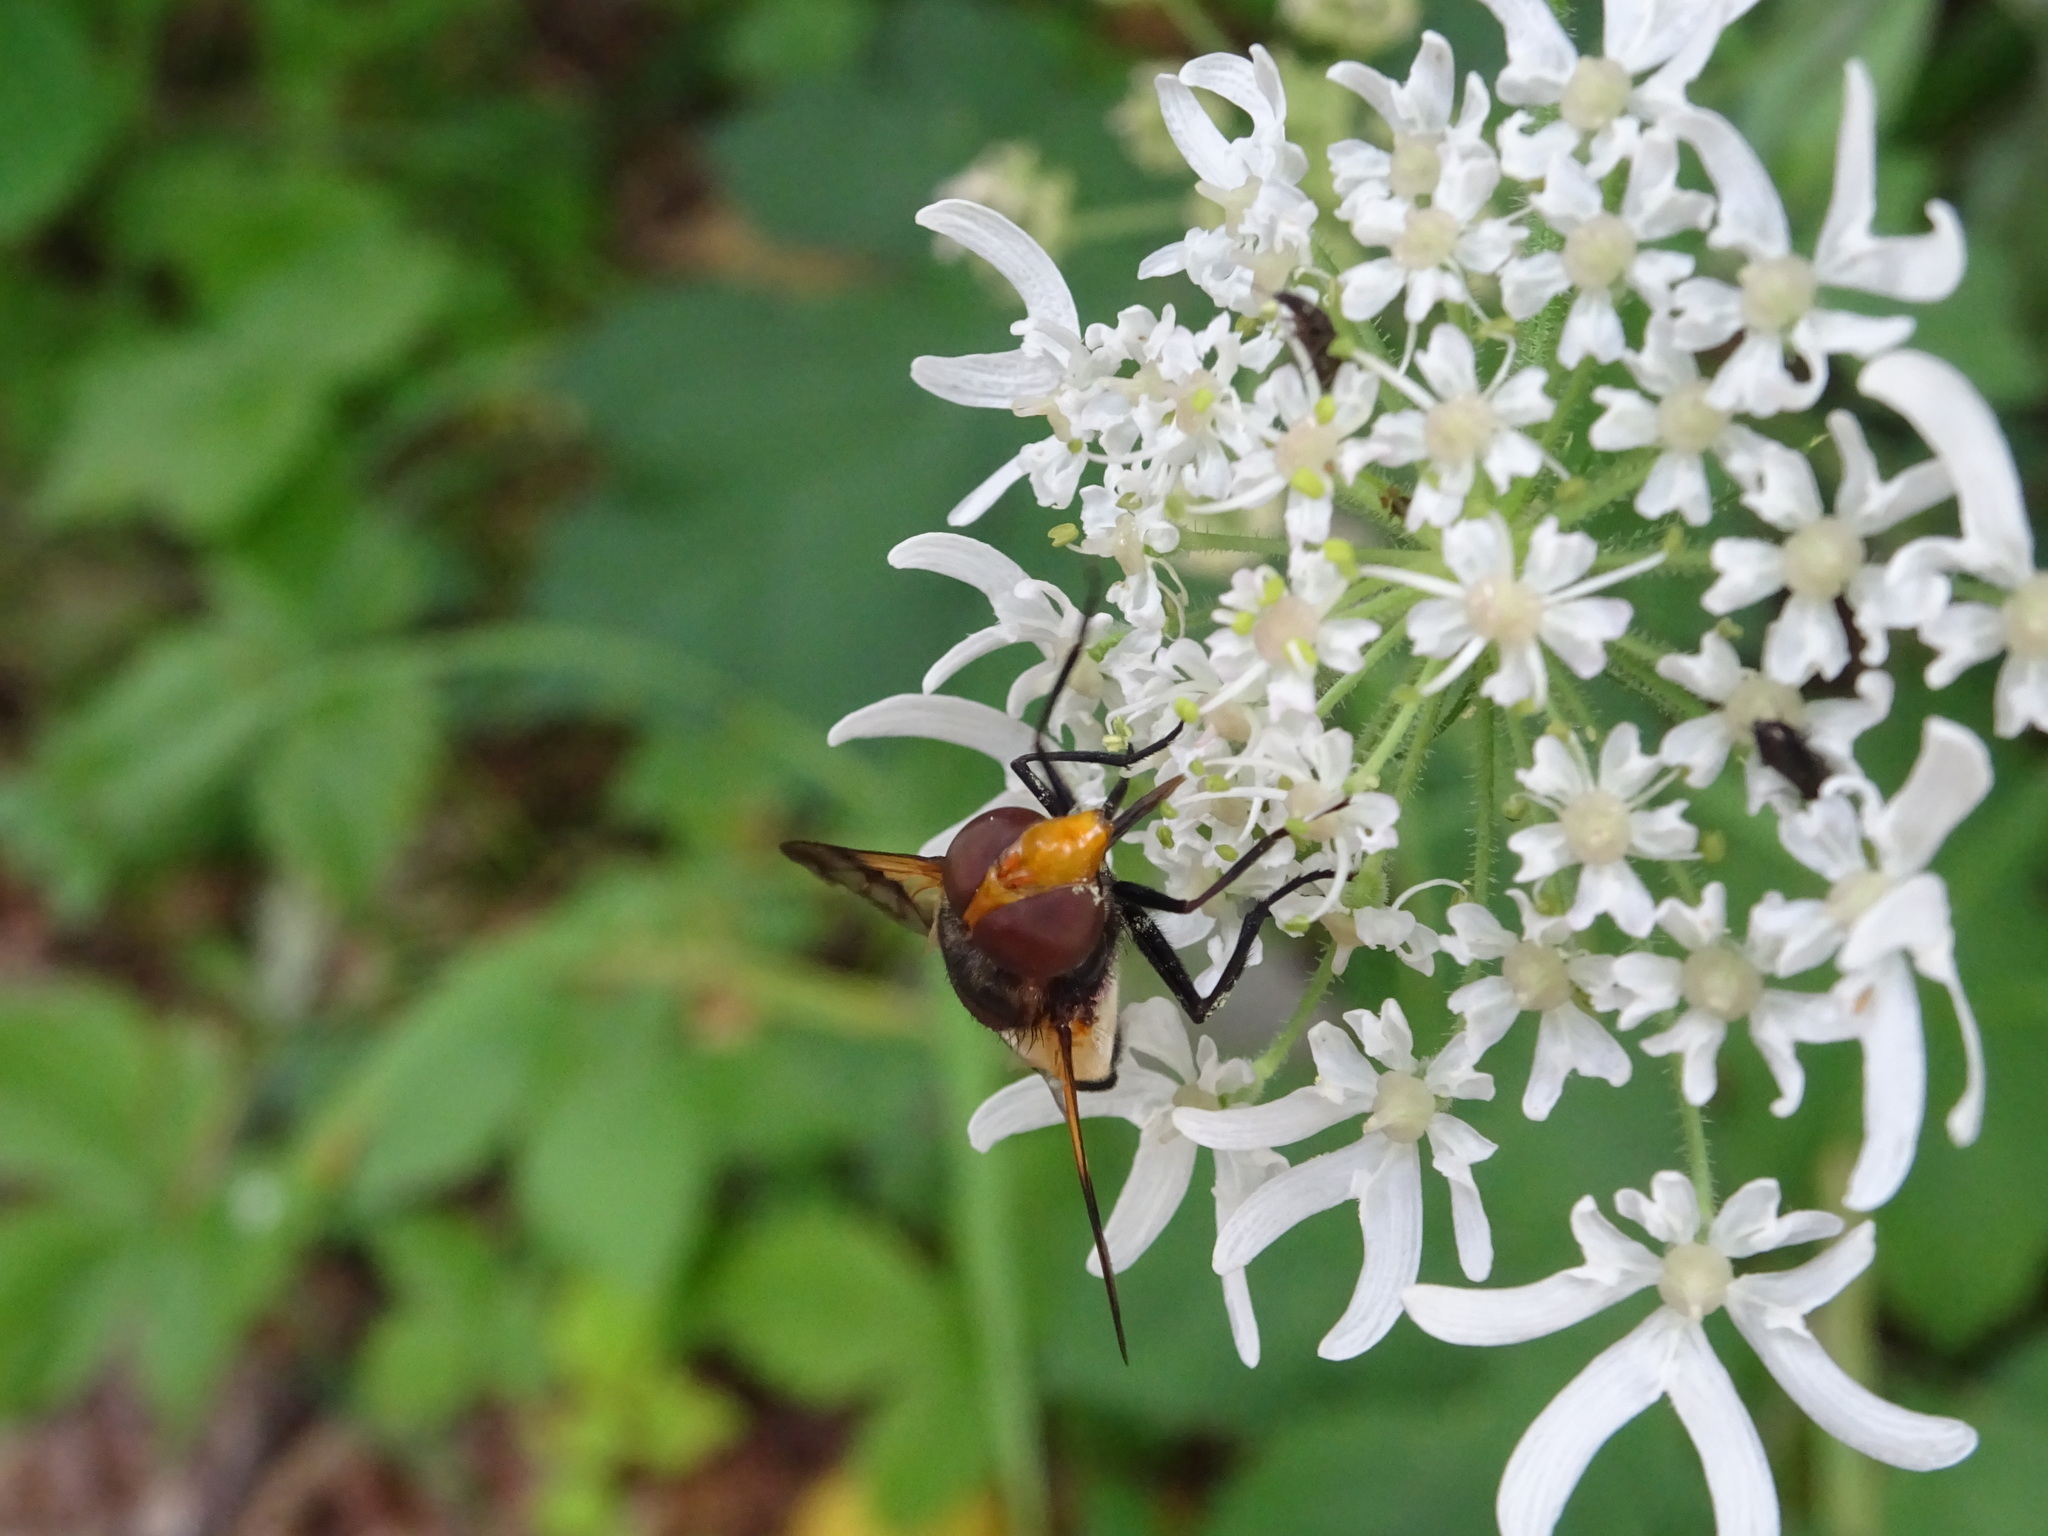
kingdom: Animalia
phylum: Arthropoda
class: Insecta
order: Diptera
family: Syrphidae
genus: Volucella
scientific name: Volucella pellucens
